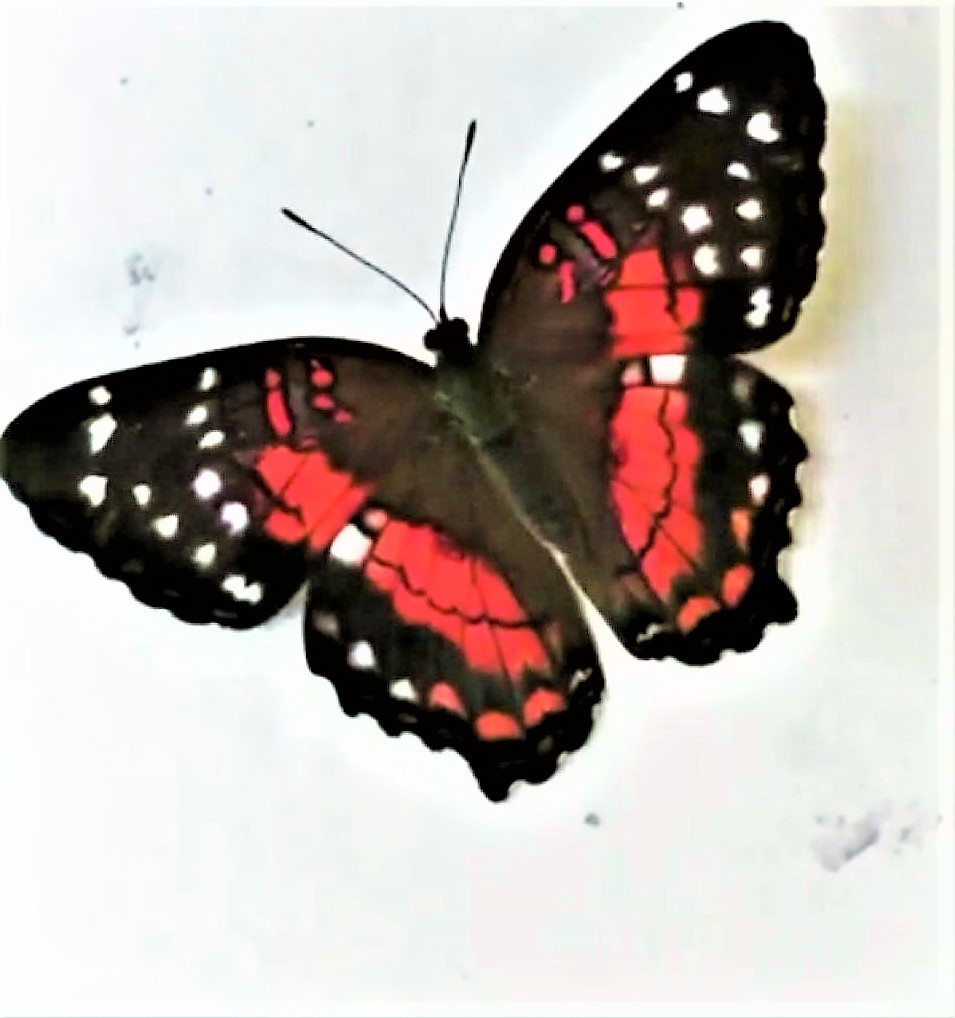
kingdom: Animalia
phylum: Arthropoda
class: Insecta
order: Lepidoptera
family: Nymphalidae
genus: Anartia
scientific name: Anartia amathea
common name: Red peacock
